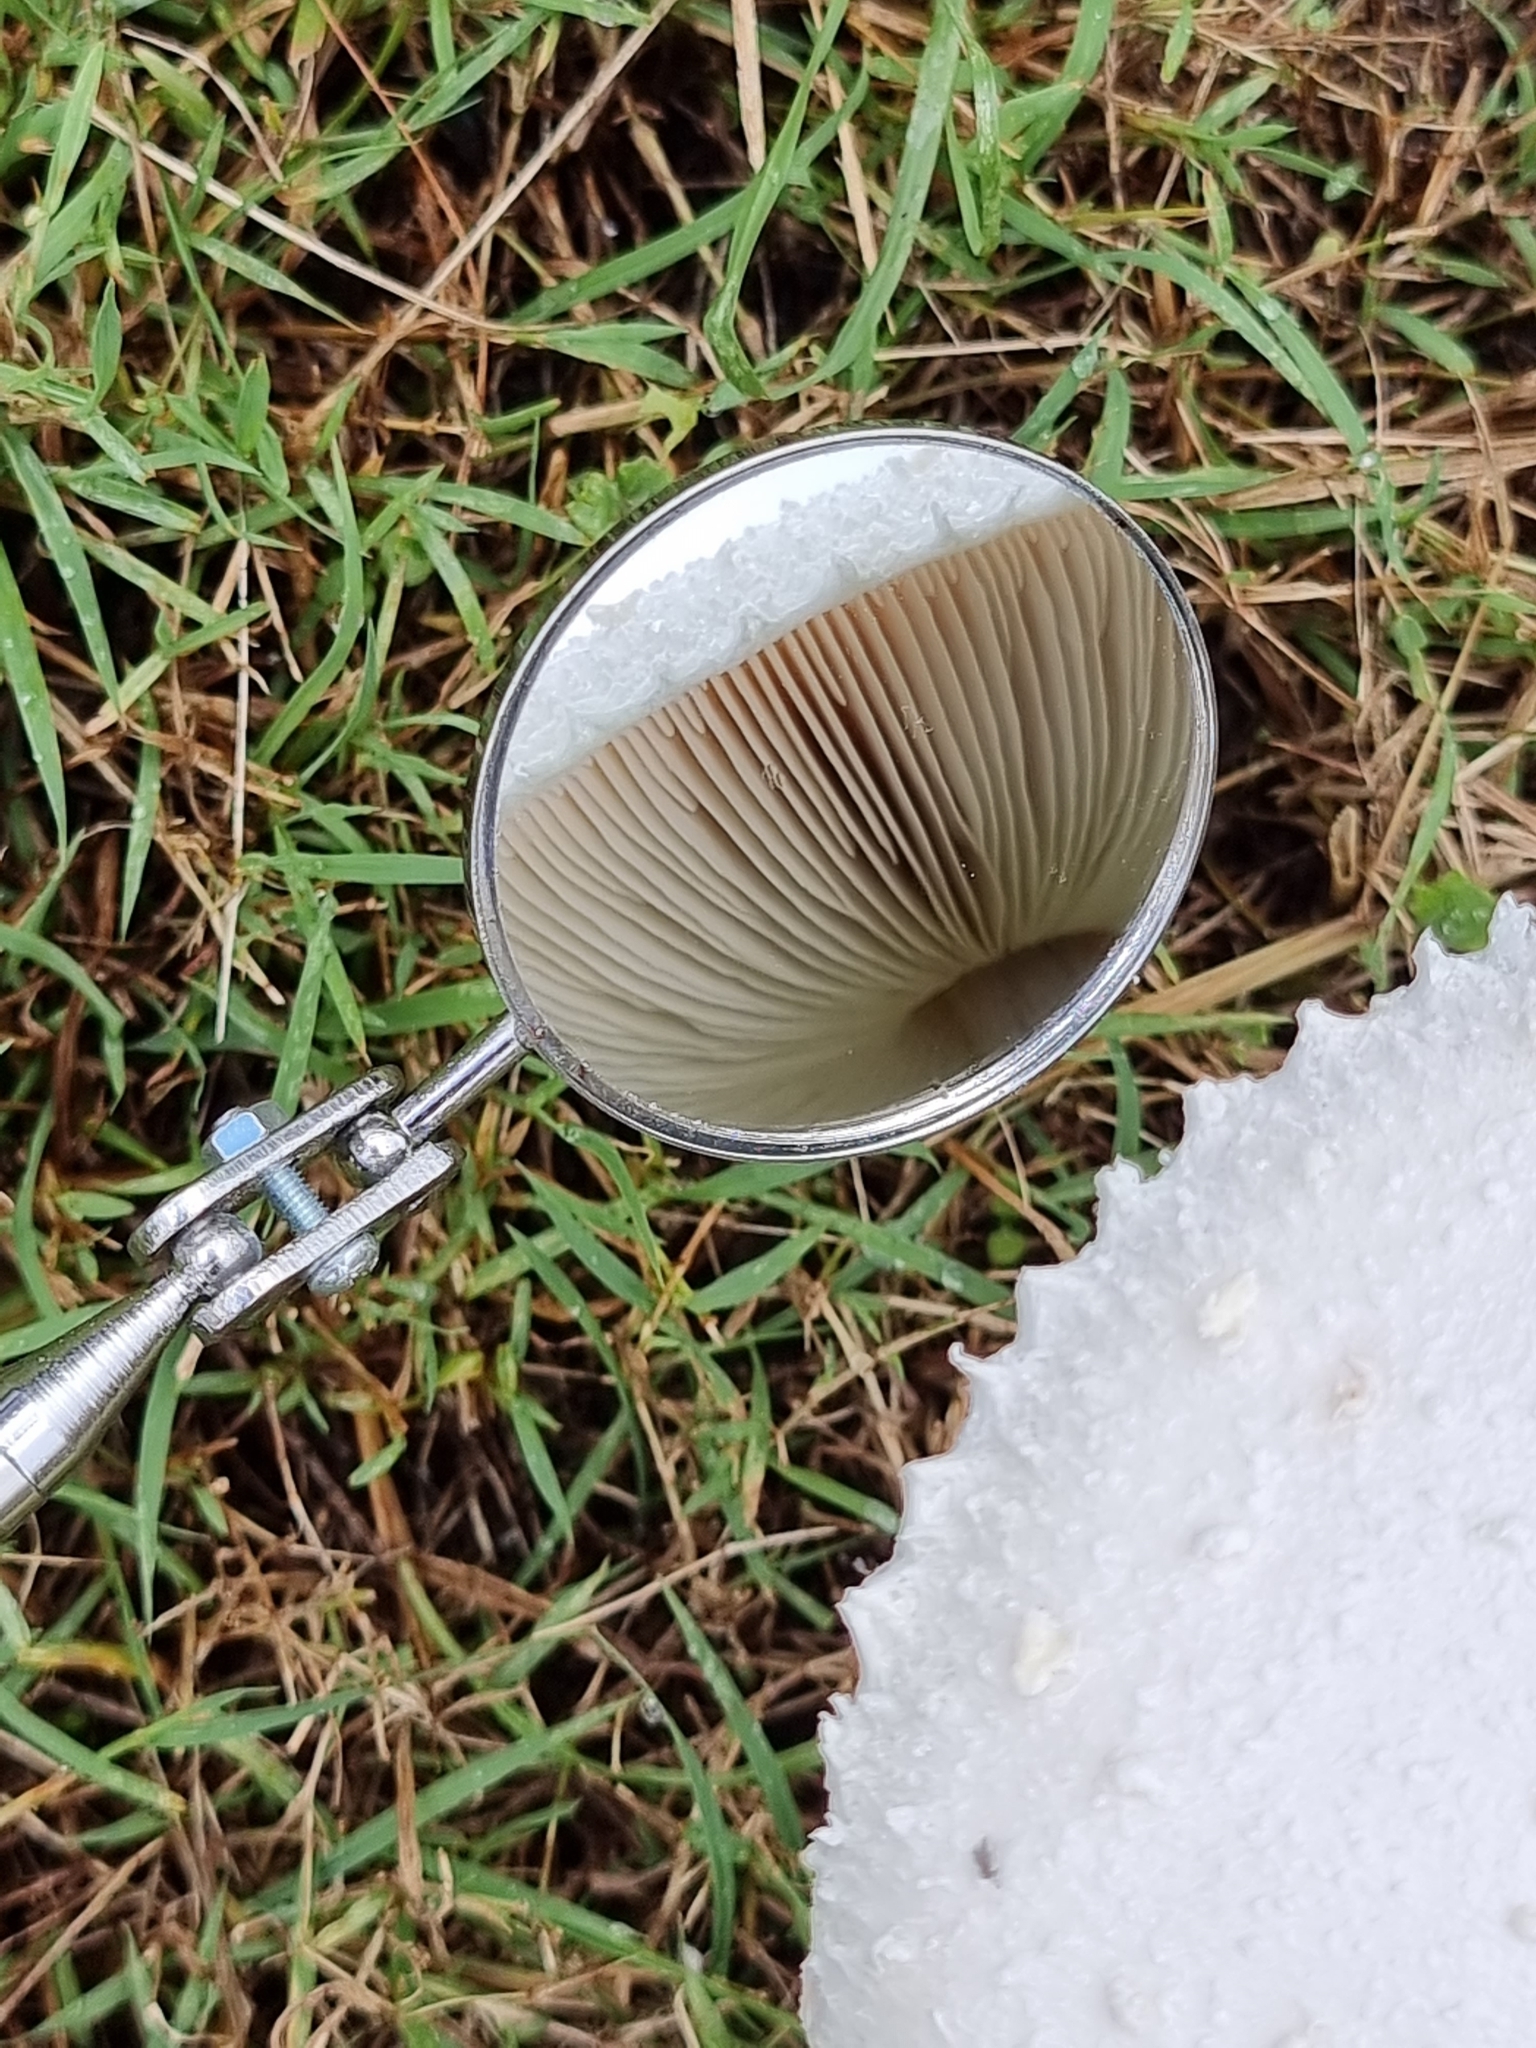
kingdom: Fungi
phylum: Basidiomycota
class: Agaricomycetes
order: Agaricales
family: Agaricaceae
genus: Macrolepiota
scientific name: Macrolepiota dolichaula
